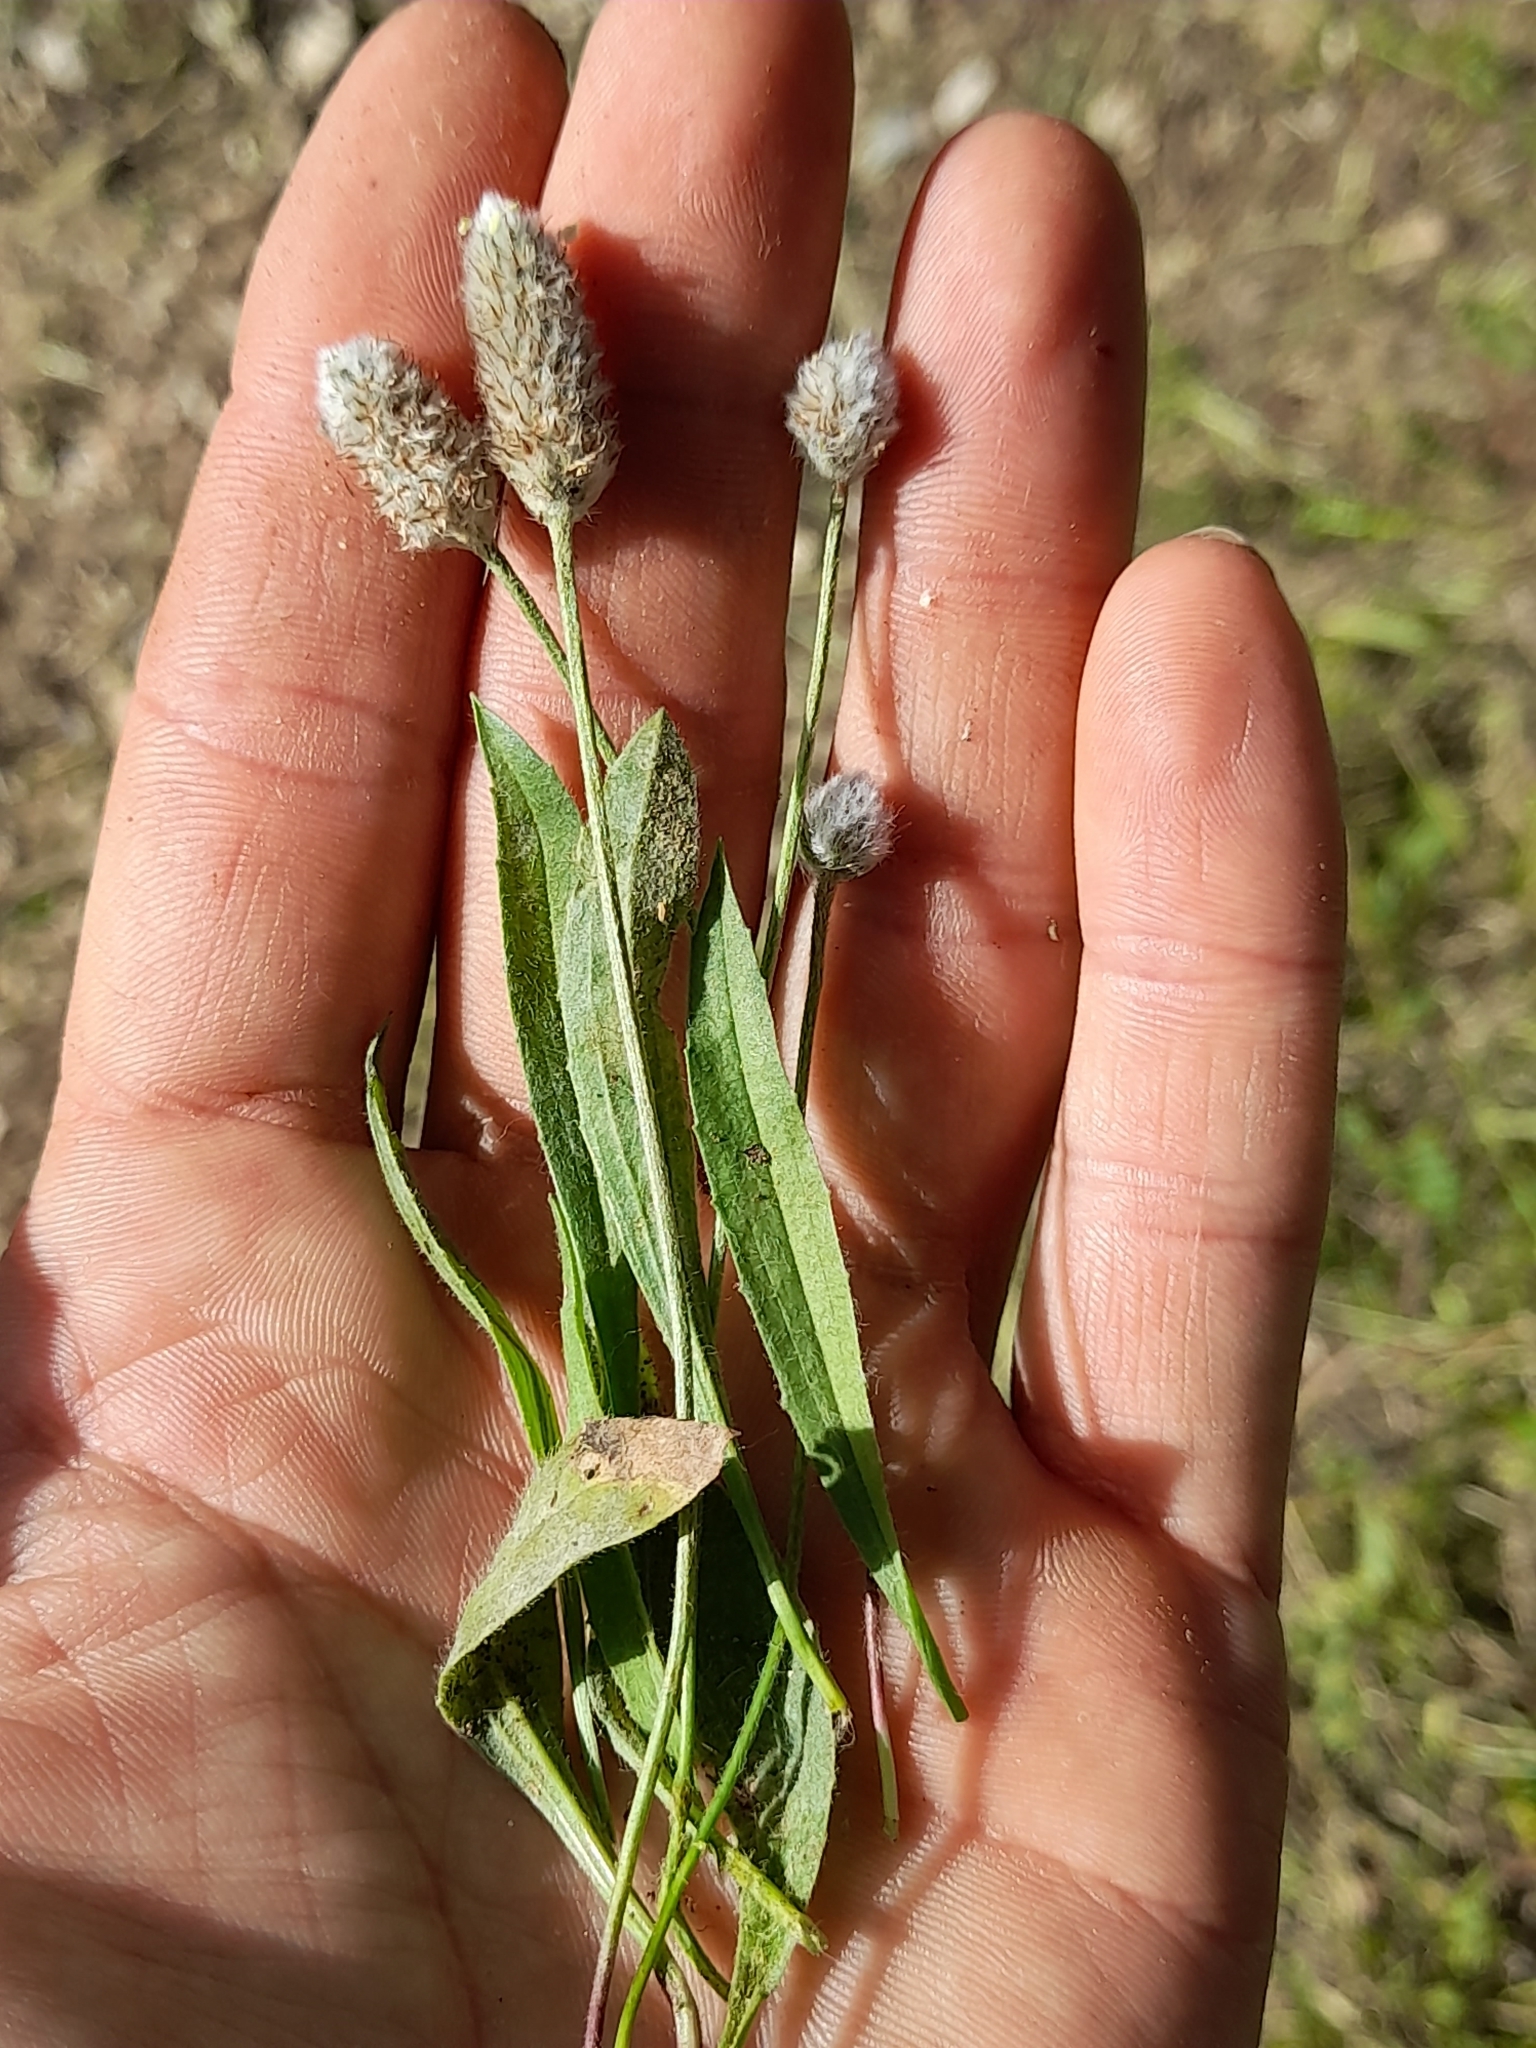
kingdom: Plantae
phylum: Tracheophyta
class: Magnoliopsida
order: Lamiales
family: Plantaginaceae
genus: Plantago
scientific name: Plantago lagopus
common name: Hare-foot plantain
